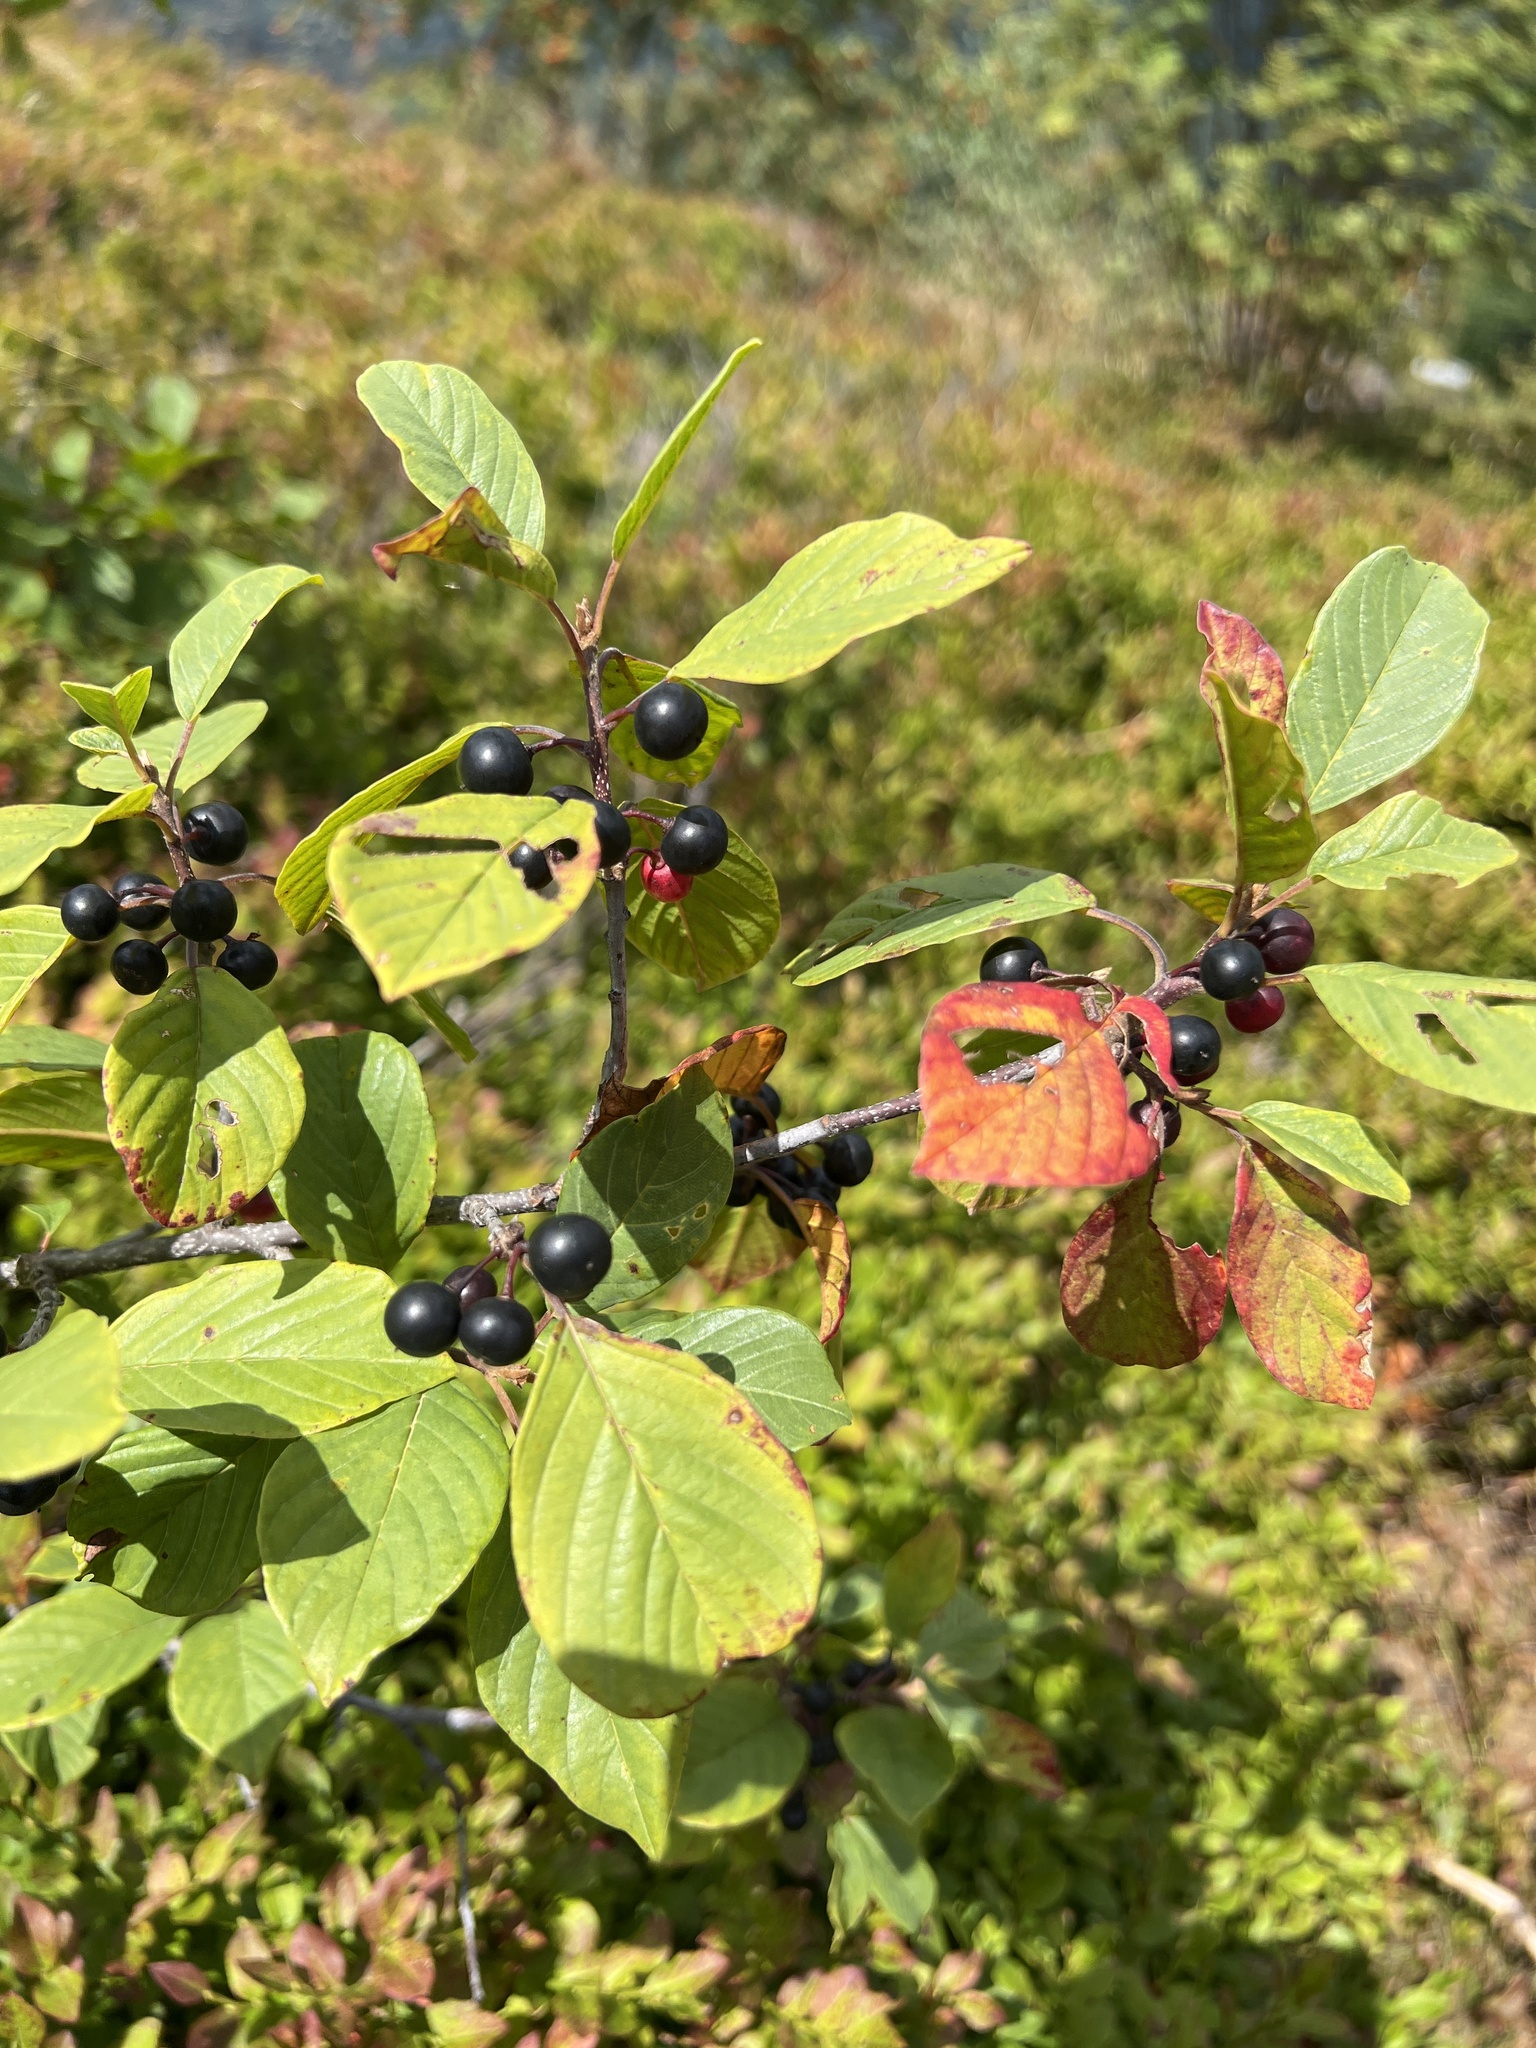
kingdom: Plantae
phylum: Tracheophyta
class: Magnoliopsida
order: Rosales
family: Rhamnaceae
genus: Frangula
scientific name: Frangula alnus
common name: Alder buckthorn
